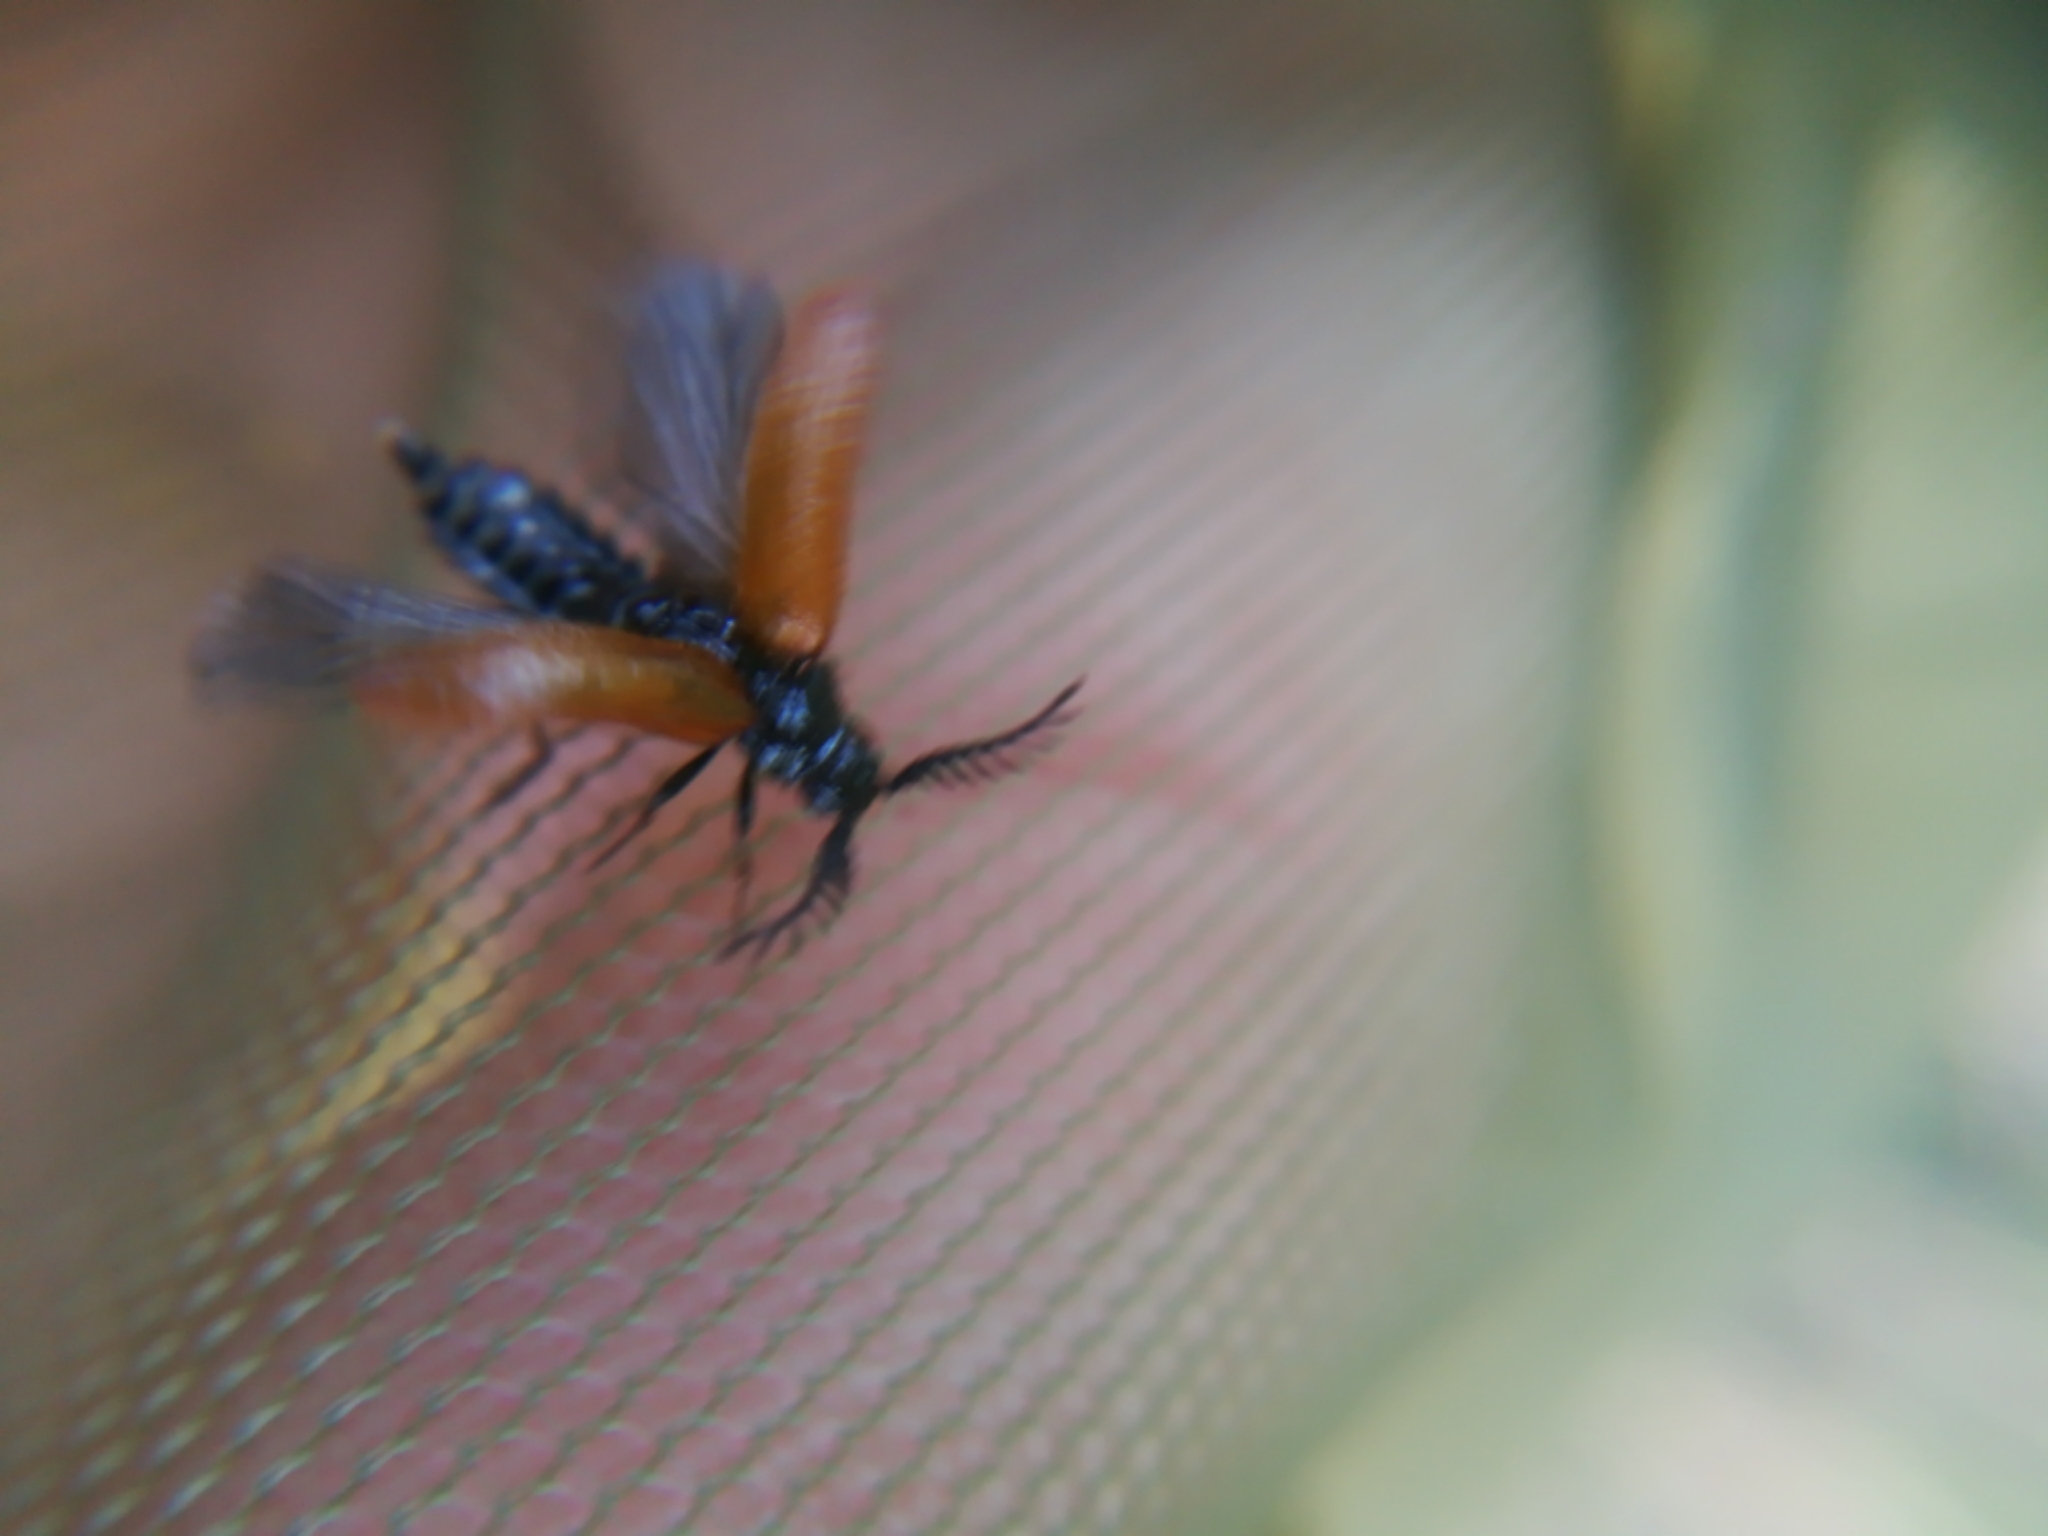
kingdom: Animalia
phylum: Arthropoda
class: Insecta
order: Coleoptera
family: Drilidae
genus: Drilus
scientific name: Drilus flavescens
